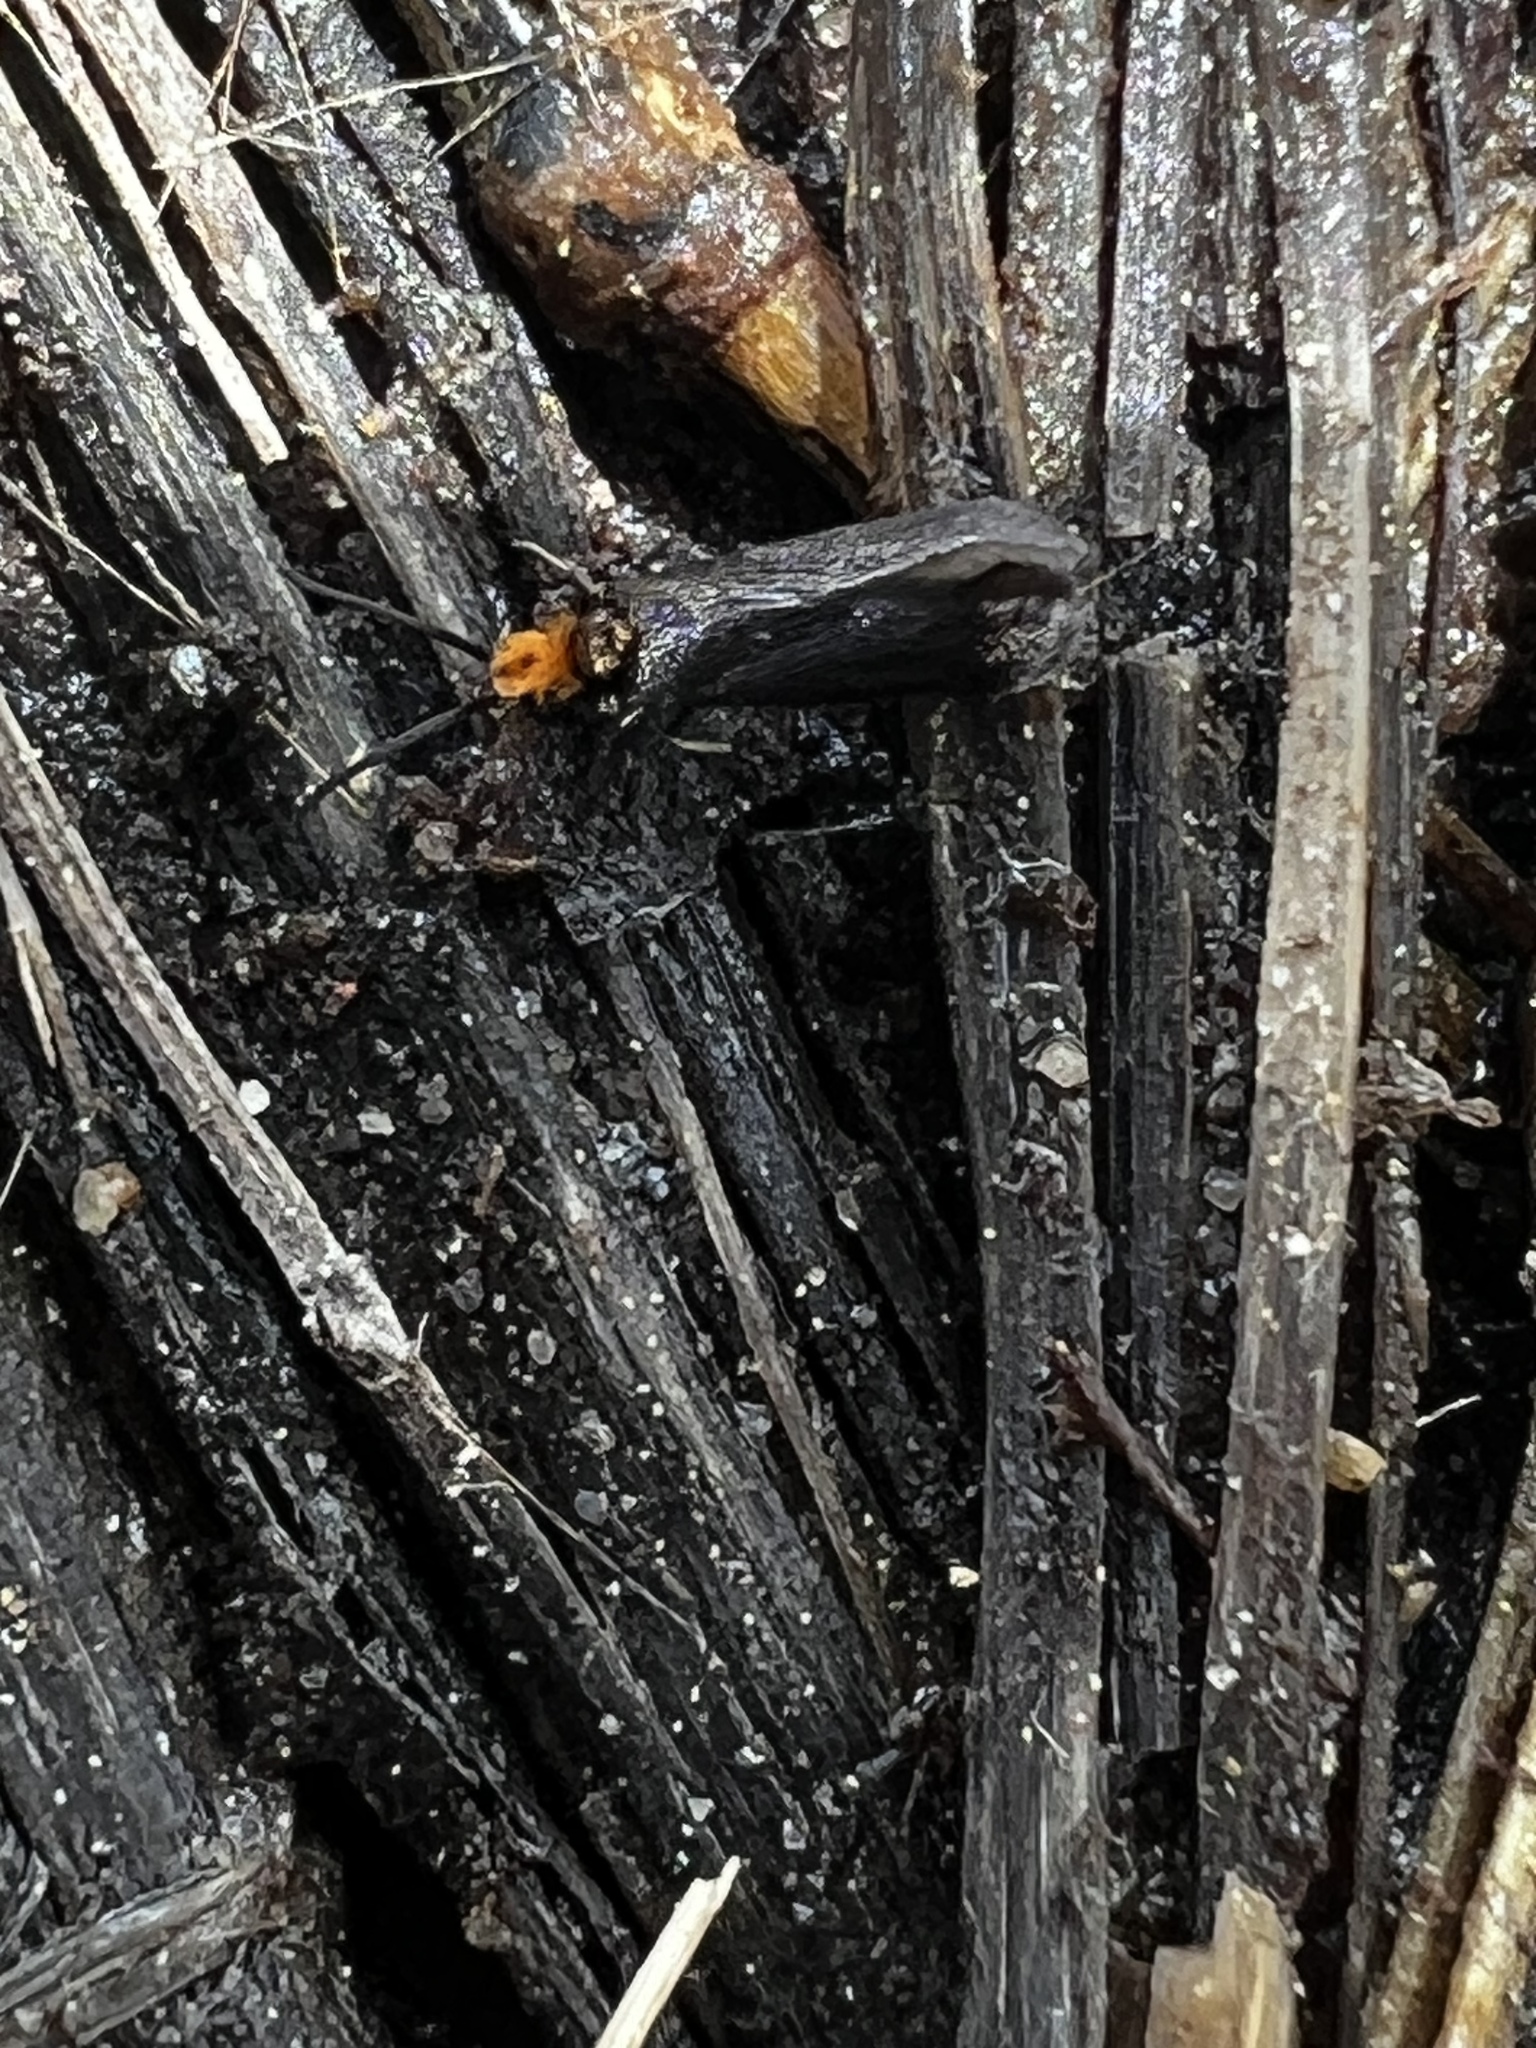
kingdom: Animalia
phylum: Arthropoda
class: Insecta
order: Lepidoptera
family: Micropterigidae
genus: Epimartyria
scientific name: Epimartyria auricrinella
